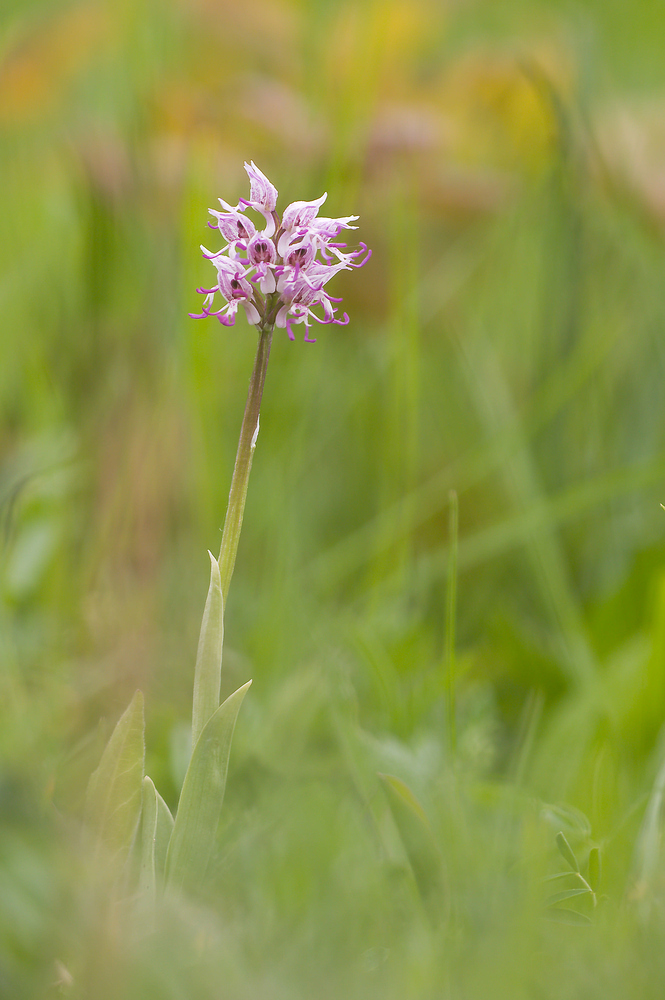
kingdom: Plantae
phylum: Tracheophyta
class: Liliopsida
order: Asparagales
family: Orchidaceae
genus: Orchis
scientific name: Orchis simia
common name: Monkey orchid
